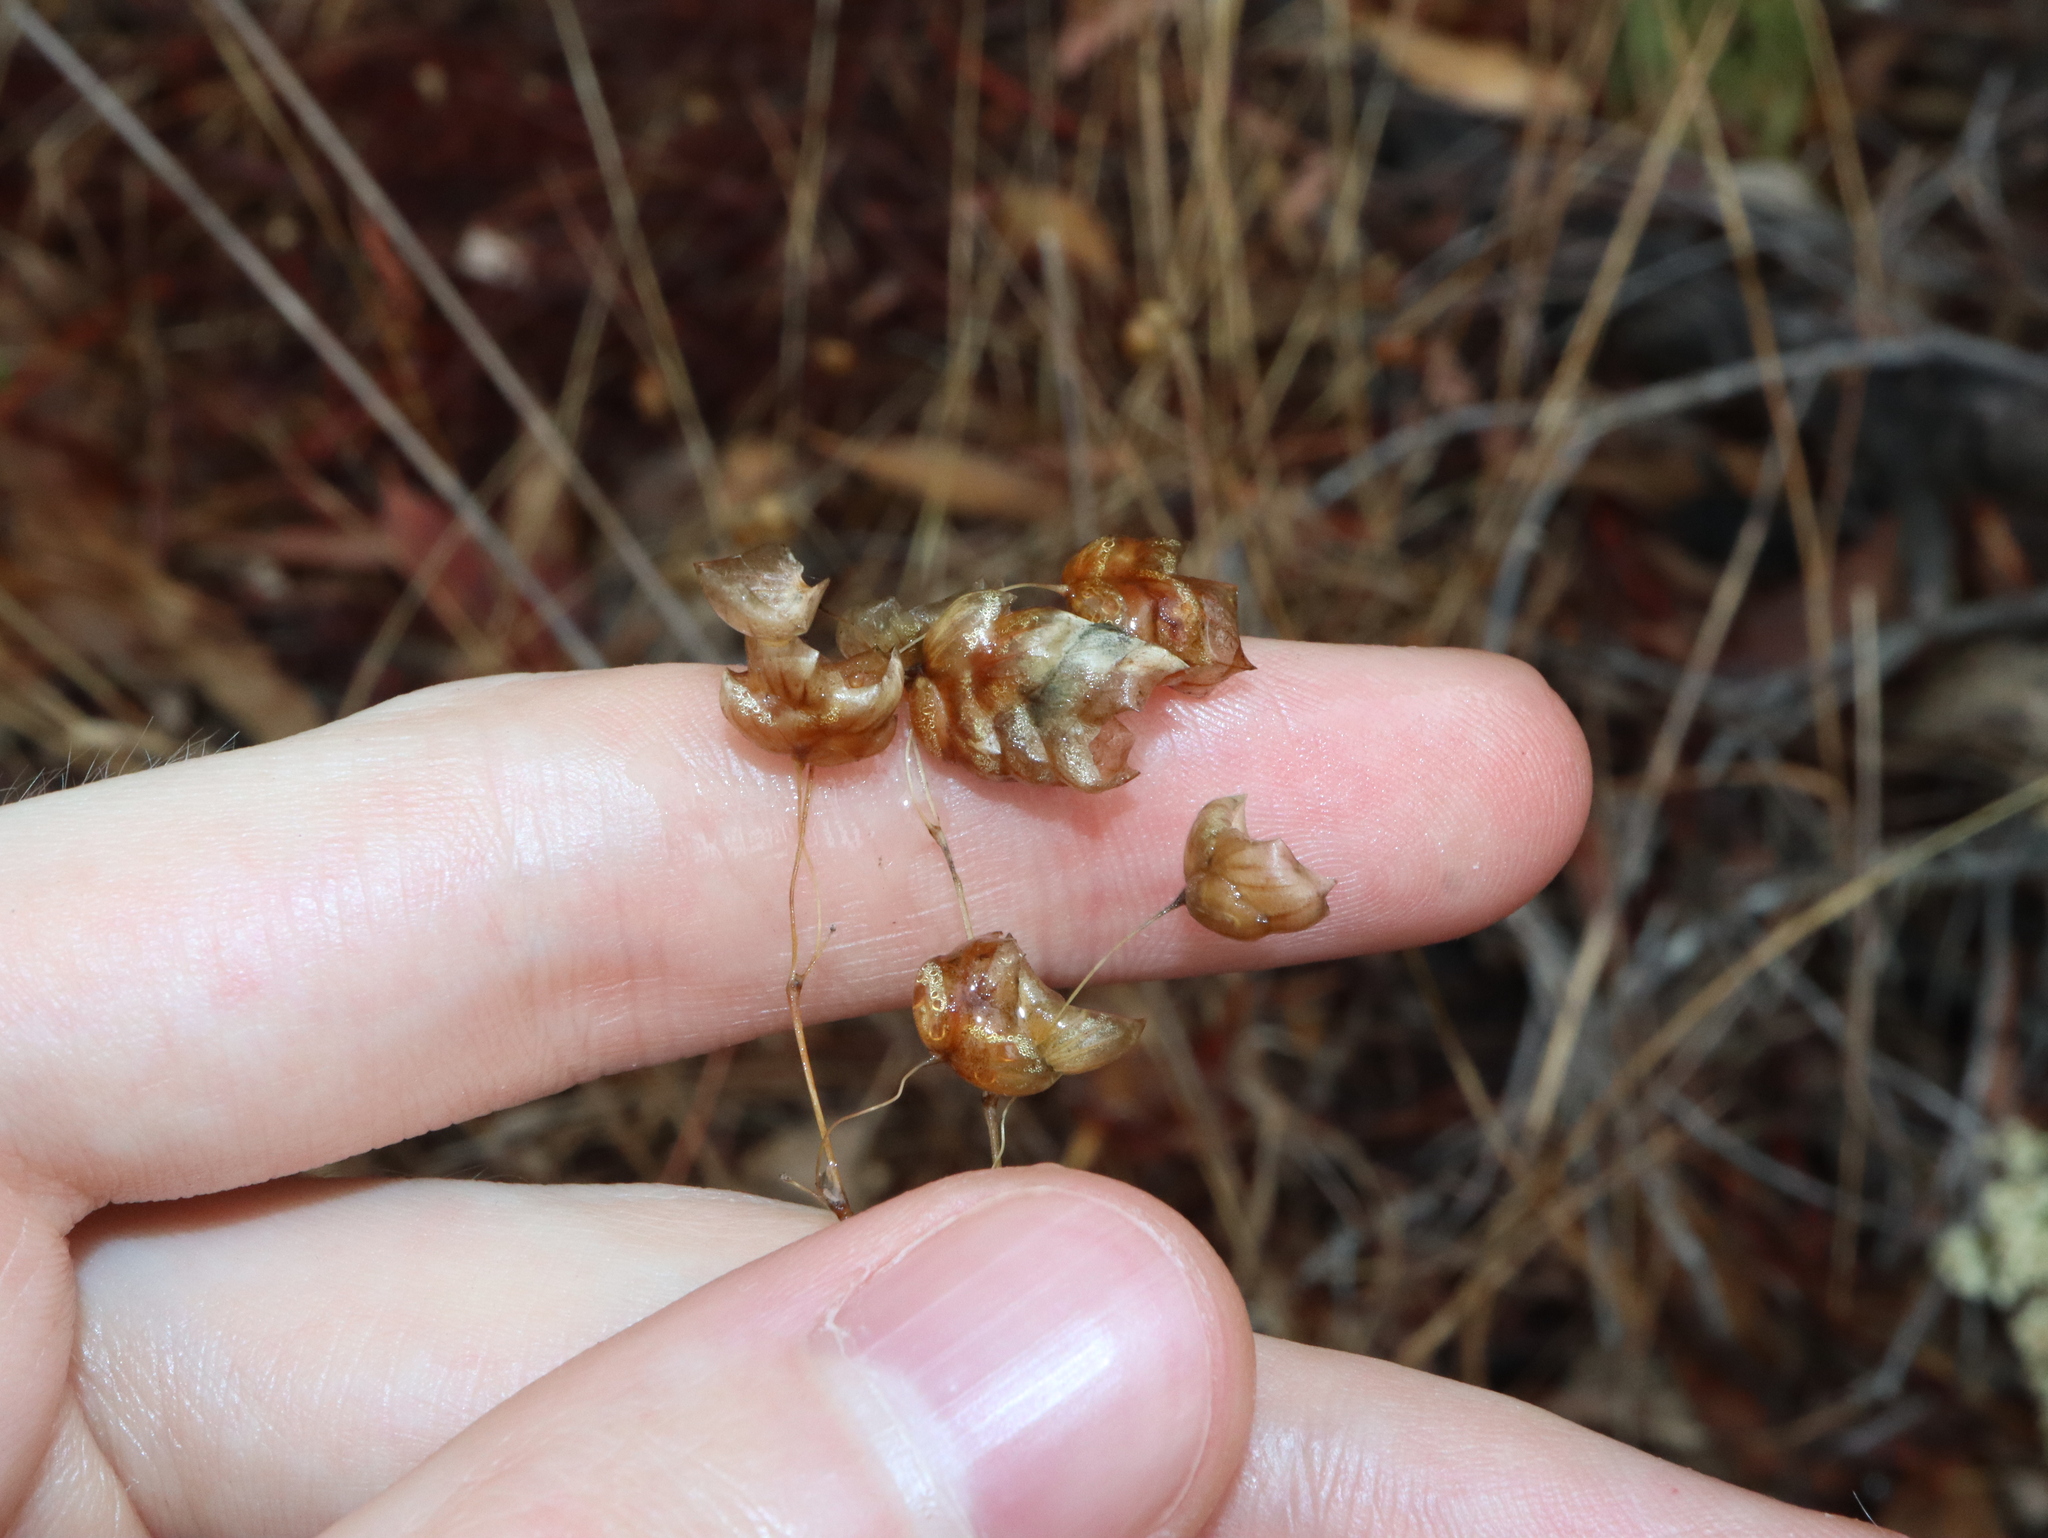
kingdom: Plantae
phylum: Tracheophyta
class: Liliopsida
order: Poales
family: Poaceae
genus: Briza
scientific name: Briza maxima
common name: Big quakinggrass
